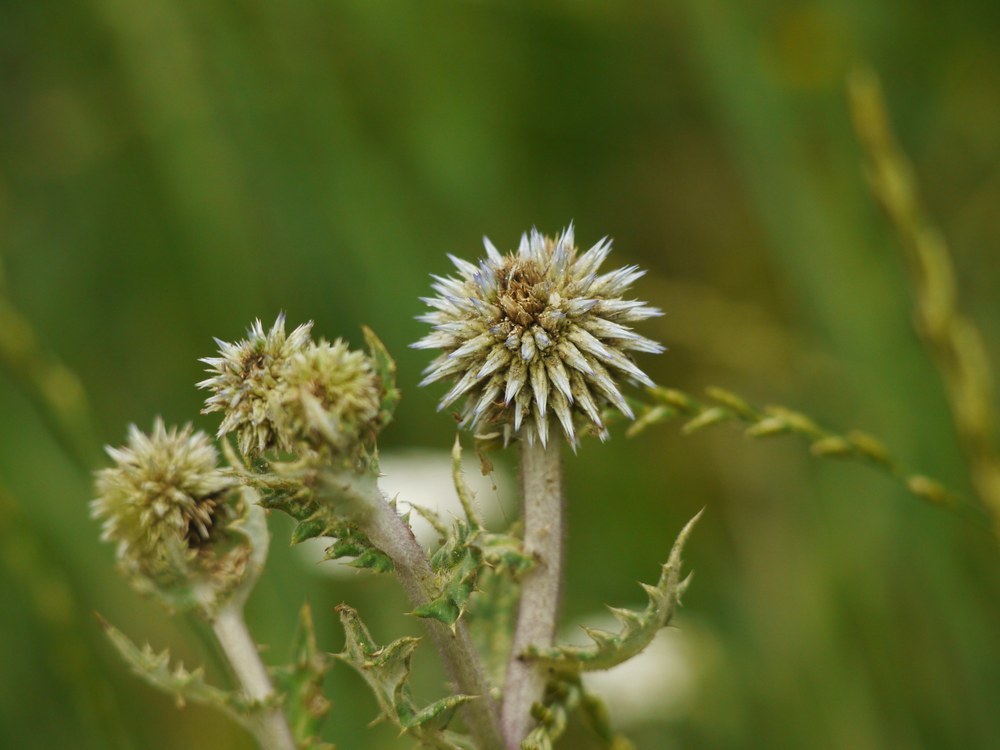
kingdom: Plantae
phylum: Tracheophyta
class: Magnoliopsida
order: Asterales
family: Asteraceae
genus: Echinops
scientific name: Echinops sphaerocephalus
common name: Glandular globe-thistle
